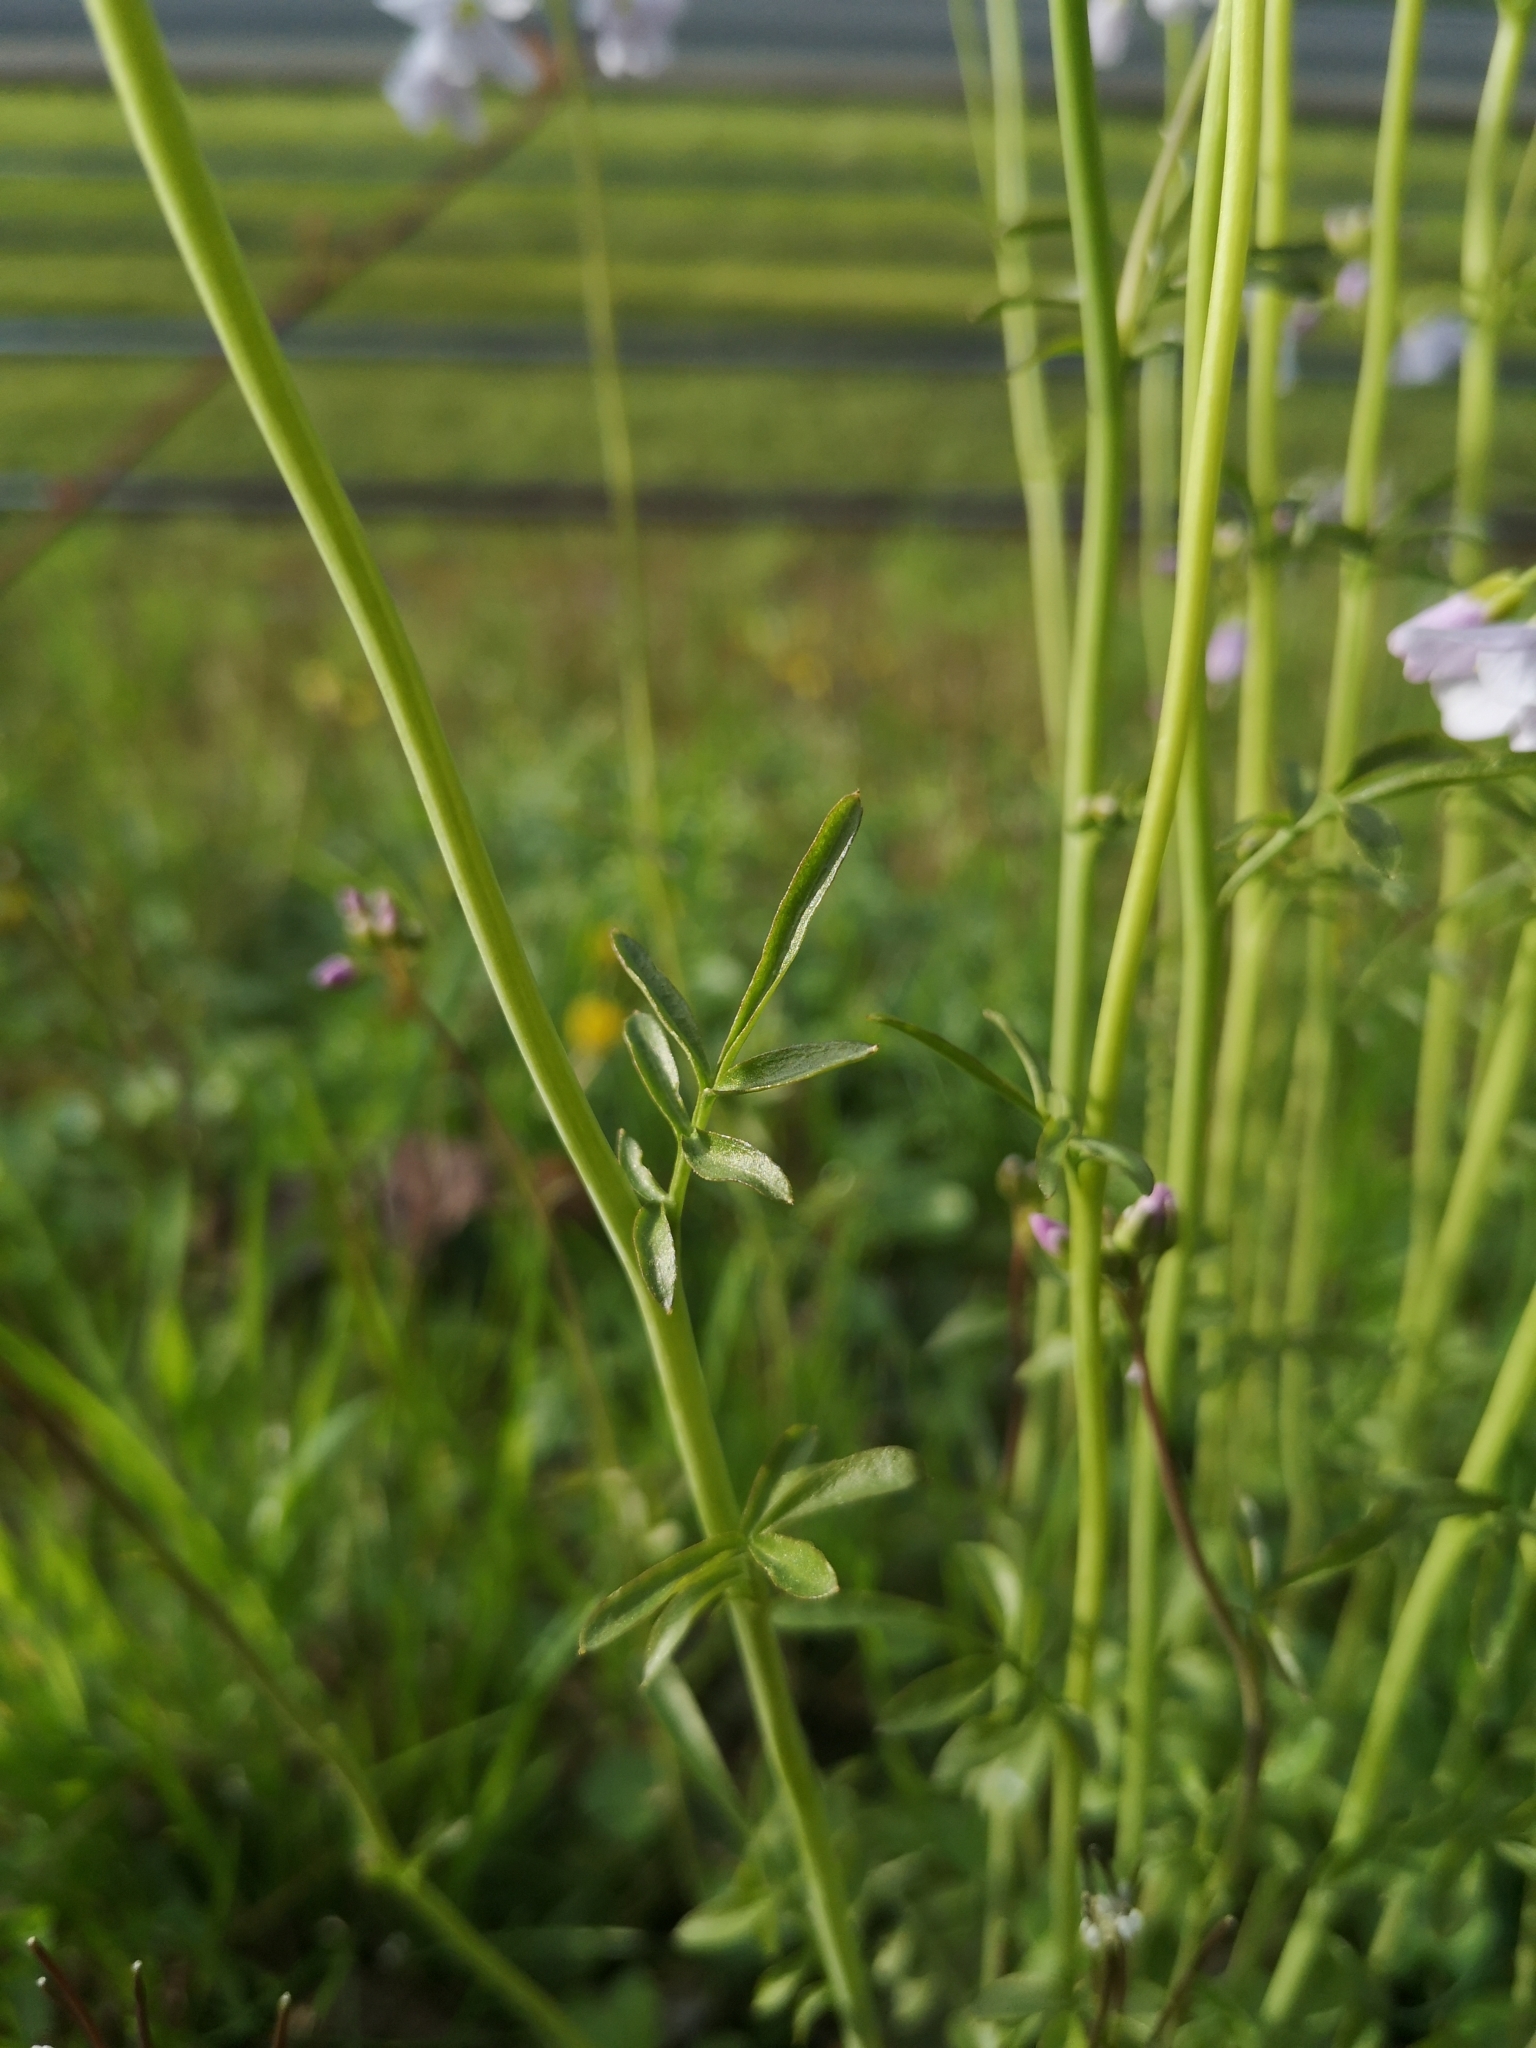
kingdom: Plantae
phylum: Tracheophyta
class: Magnoliopsida
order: Brassicales
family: Brassicaceae
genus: Cardamine
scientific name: Cardamine pratensis
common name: Cuckoo flower
